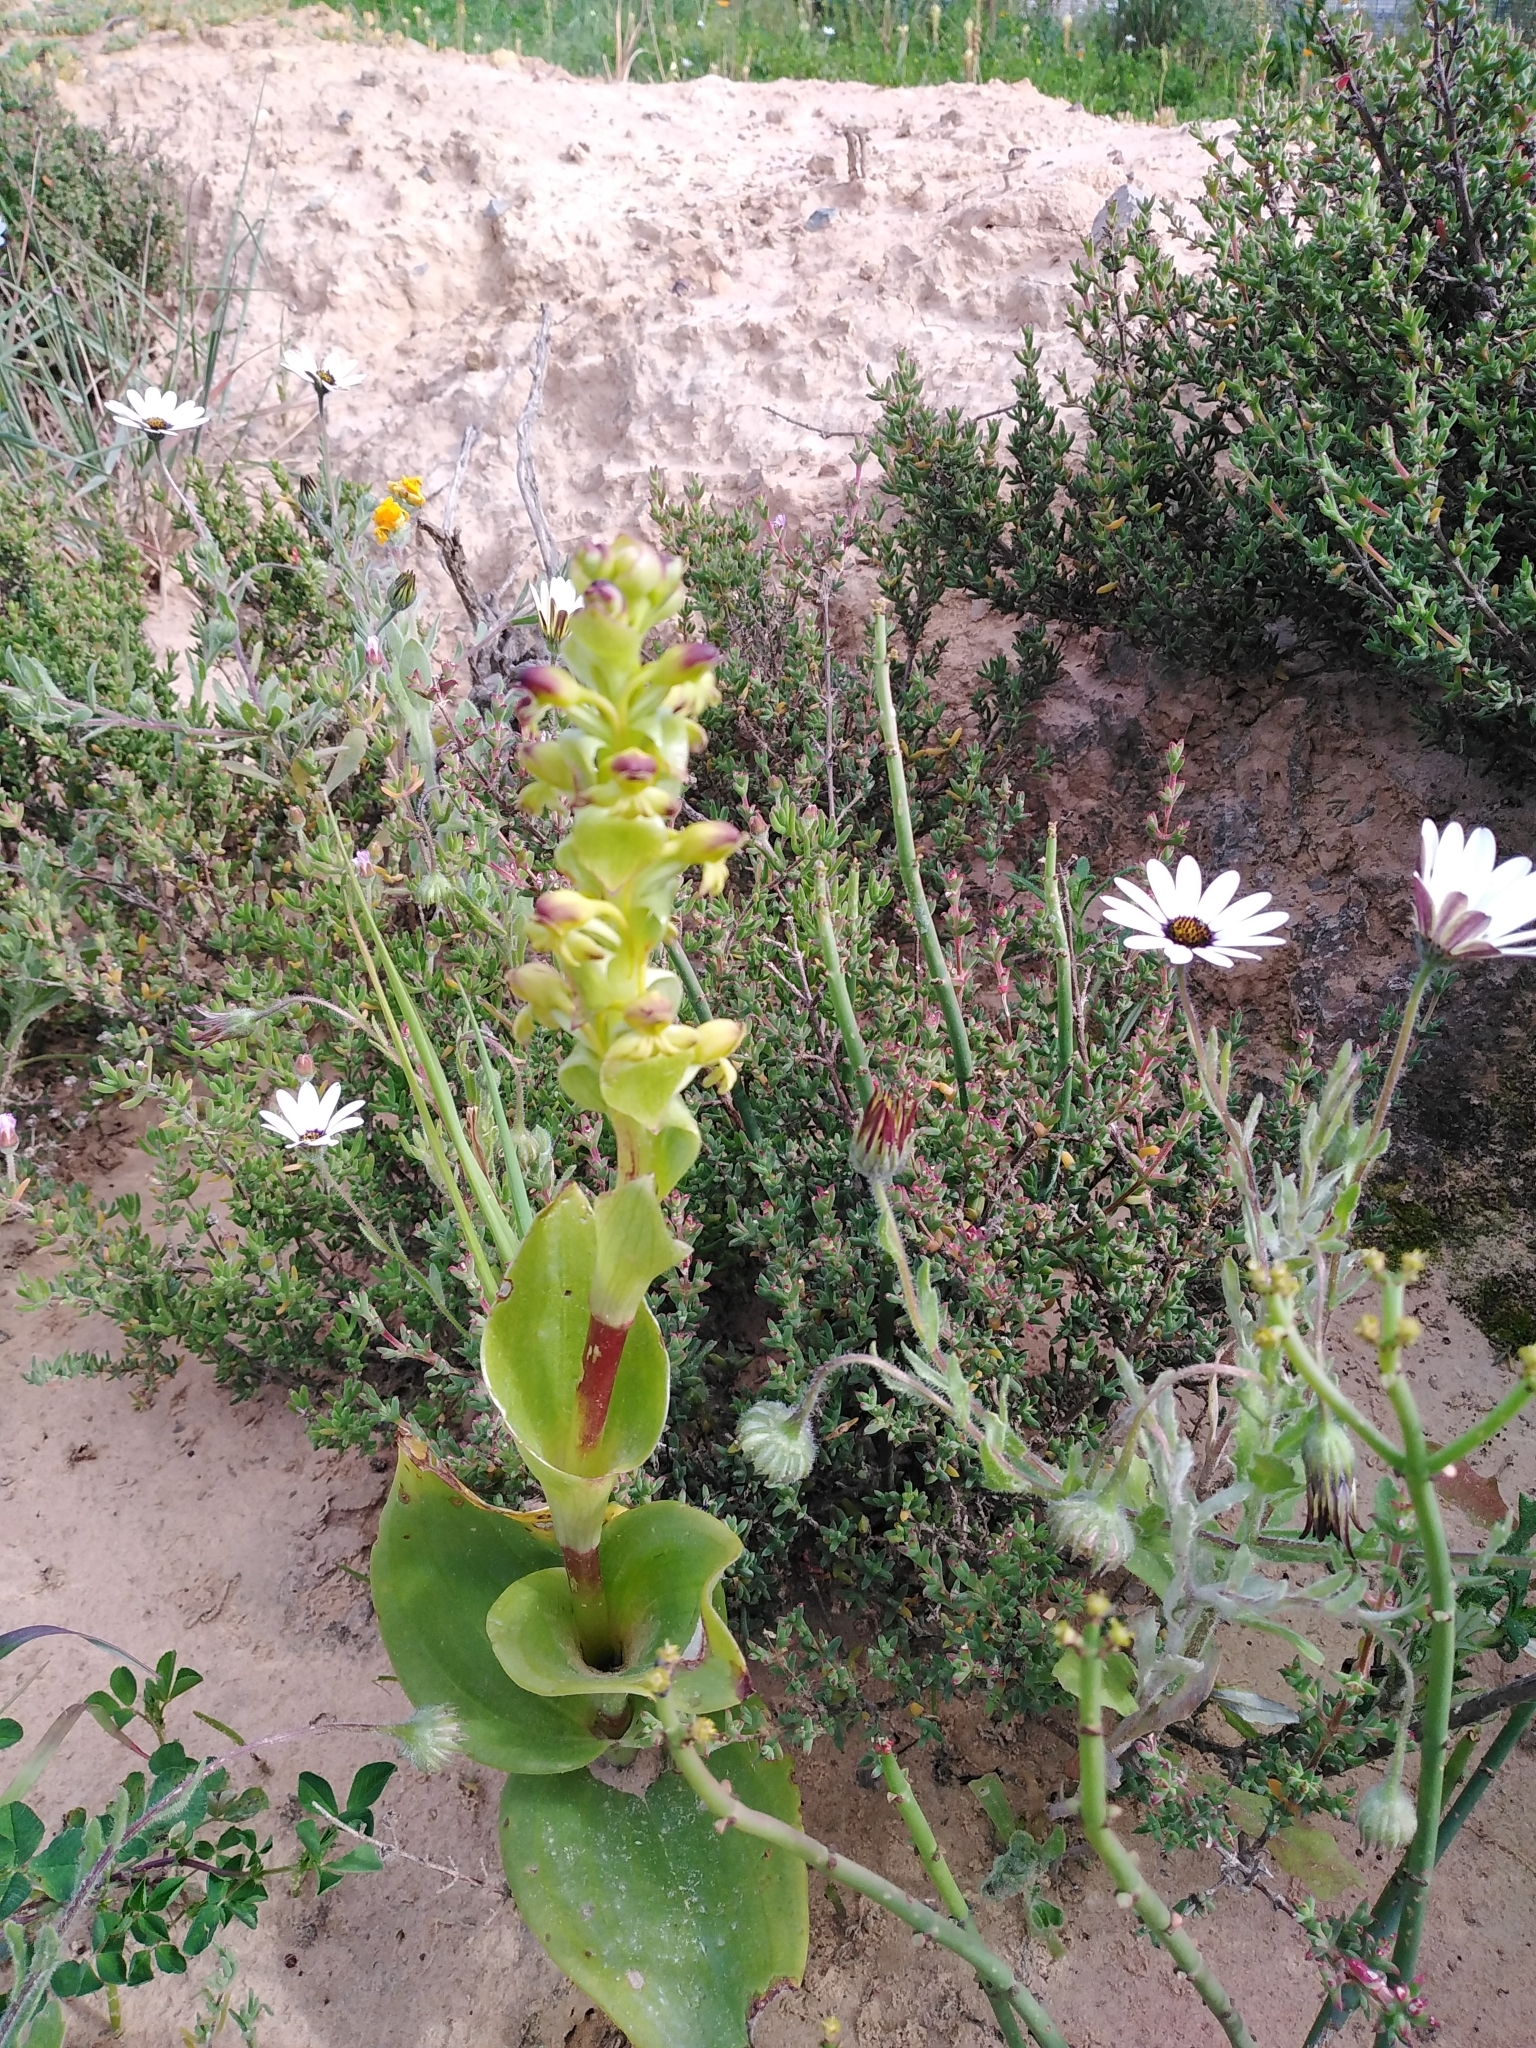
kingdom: Plantae
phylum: Tracheophyta
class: Liliopsida
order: Asparagales
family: Orchidaceae
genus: Satyrium
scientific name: Satyrium odorum
